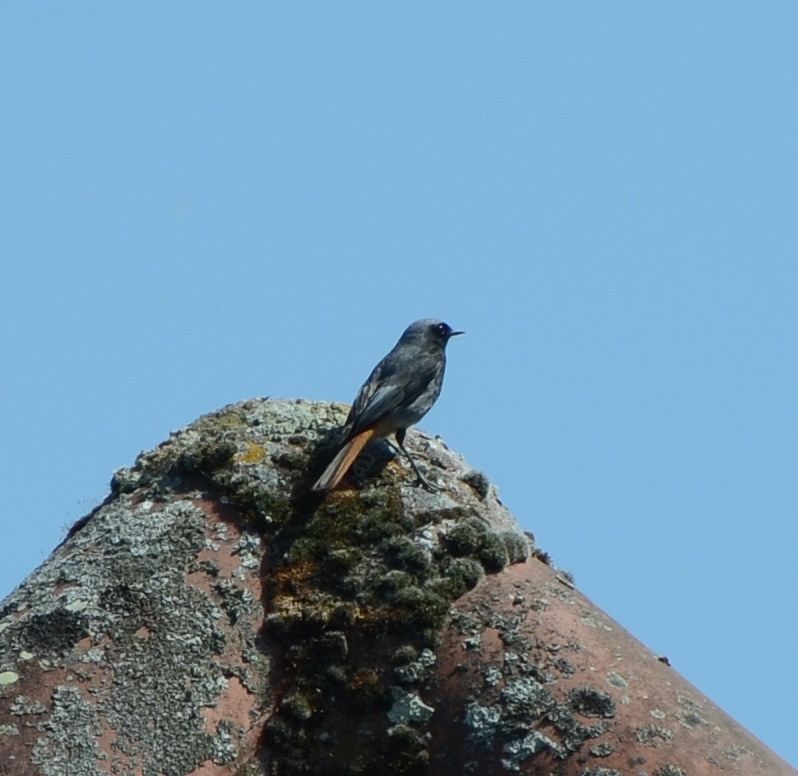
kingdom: Animalia
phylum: Chordata
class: Aves
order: Passeriformes
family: Muscicapidae
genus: Phoenicurus
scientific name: Phoenicurus ochruros
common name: Black redstart
